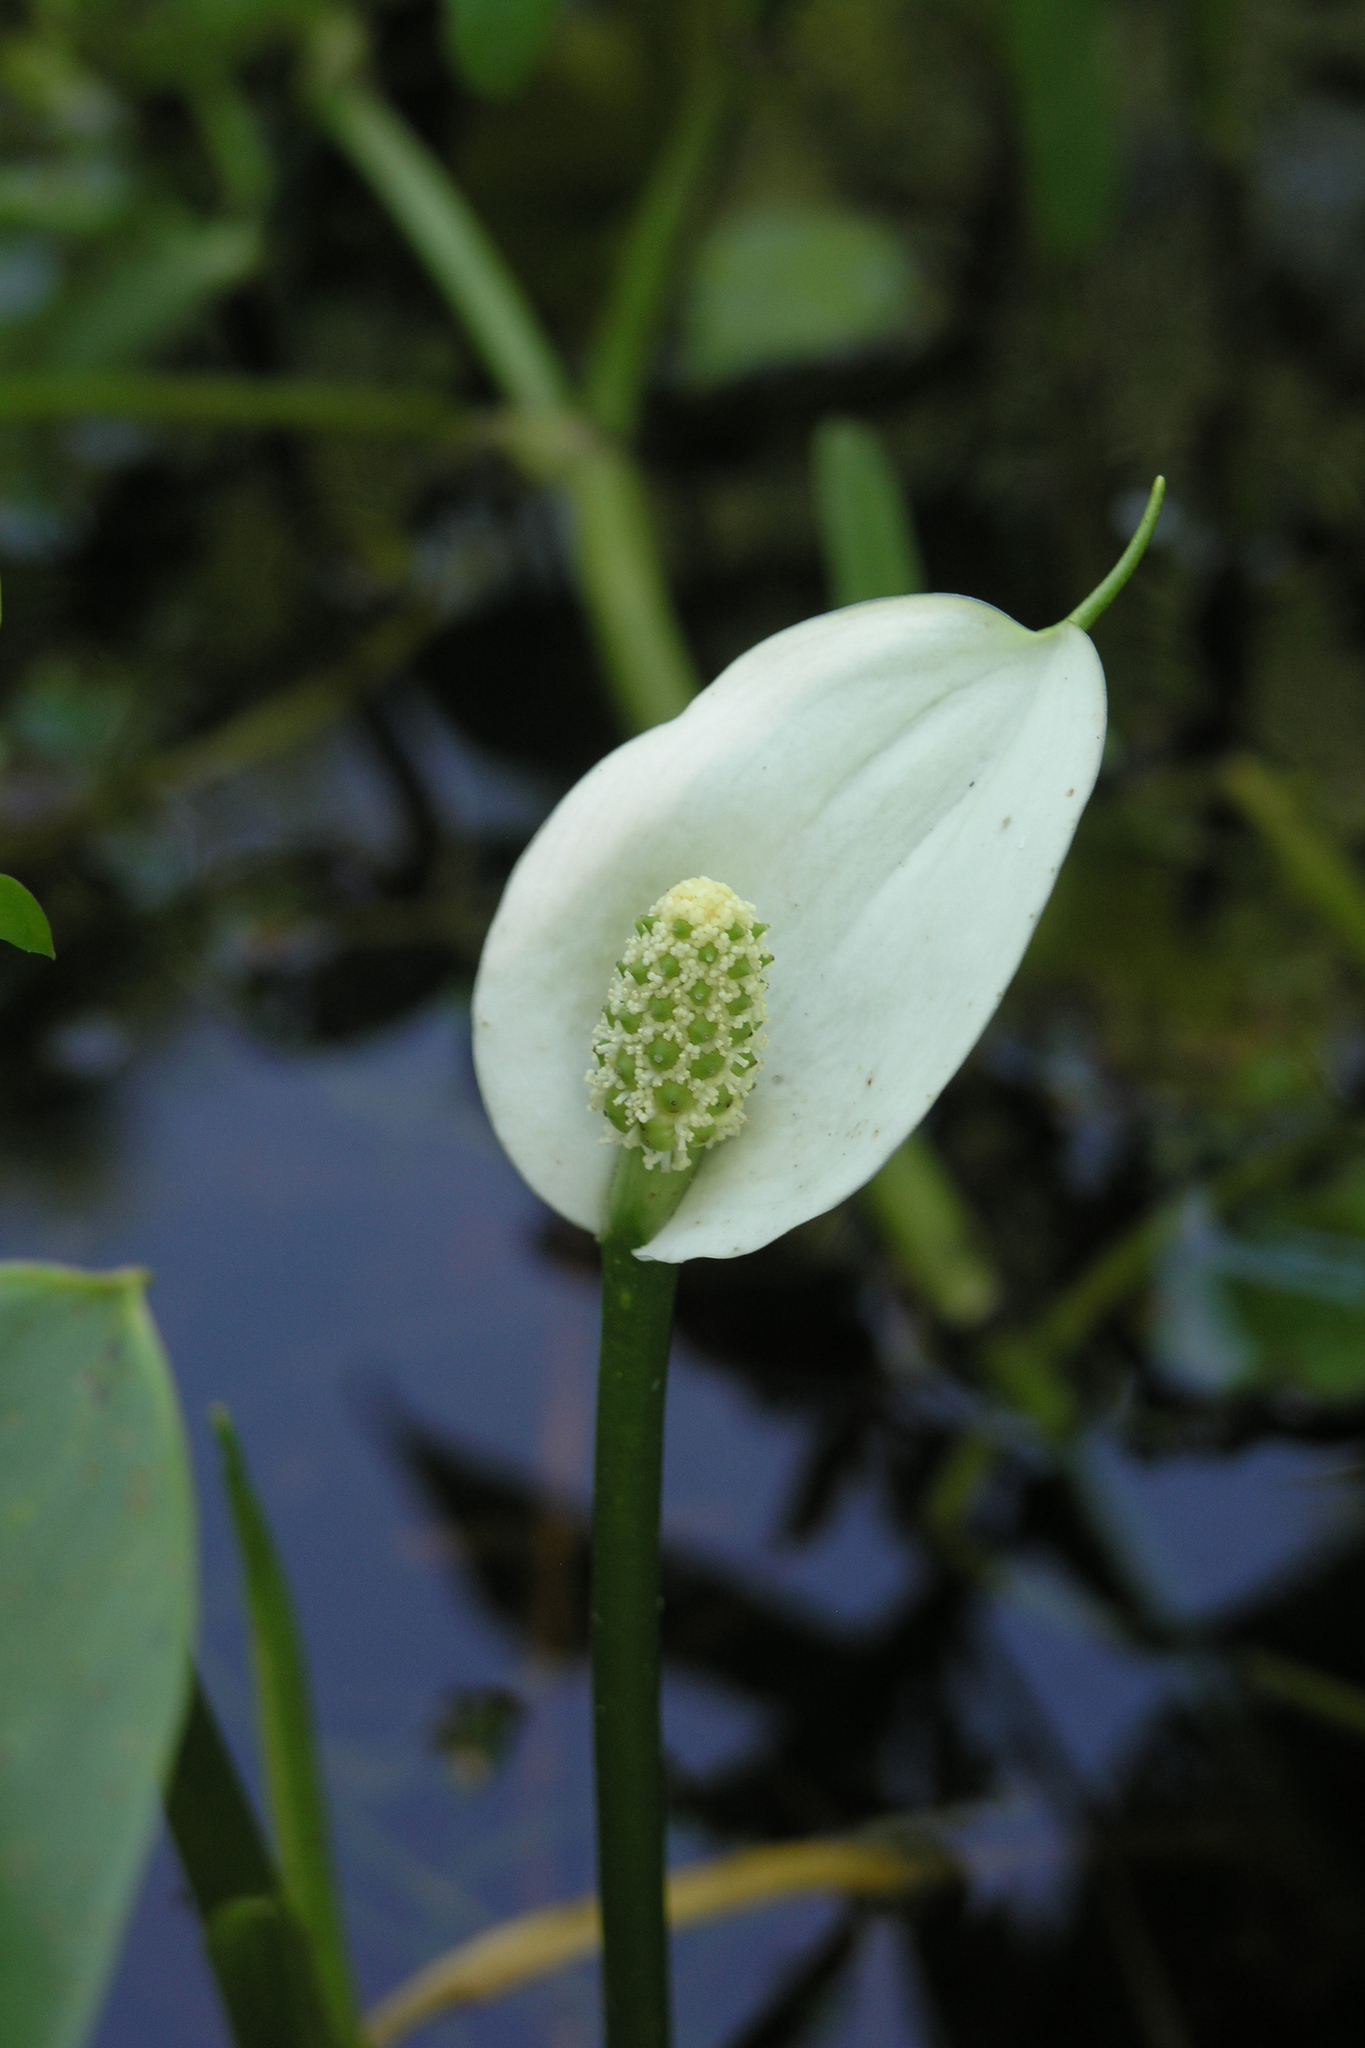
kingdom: Plantae
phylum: Tracheophyta
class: Liliopsida
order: Alismatales
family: Araceae
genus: Calla
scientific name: Calla palustris
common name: Bog arum
